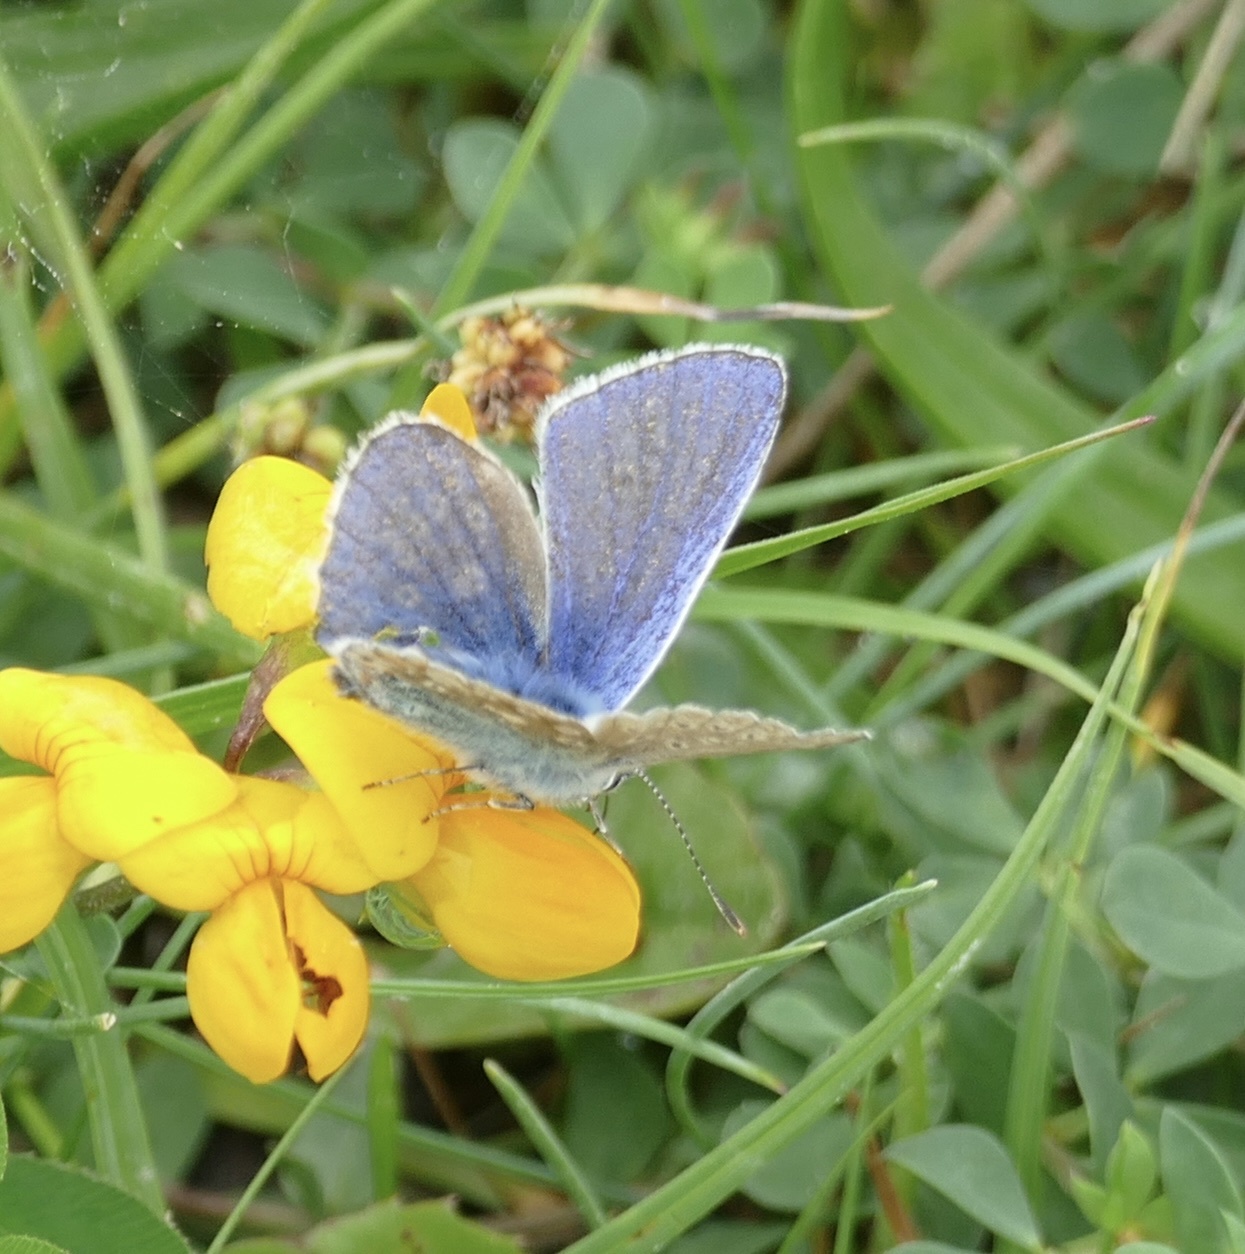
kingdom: Animalia
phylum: Arthropoda
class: Insecta
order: Lepidoptera
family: Lycaenidae
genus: Polyommatus
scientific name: Polyommatus icarus
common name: Common blue
